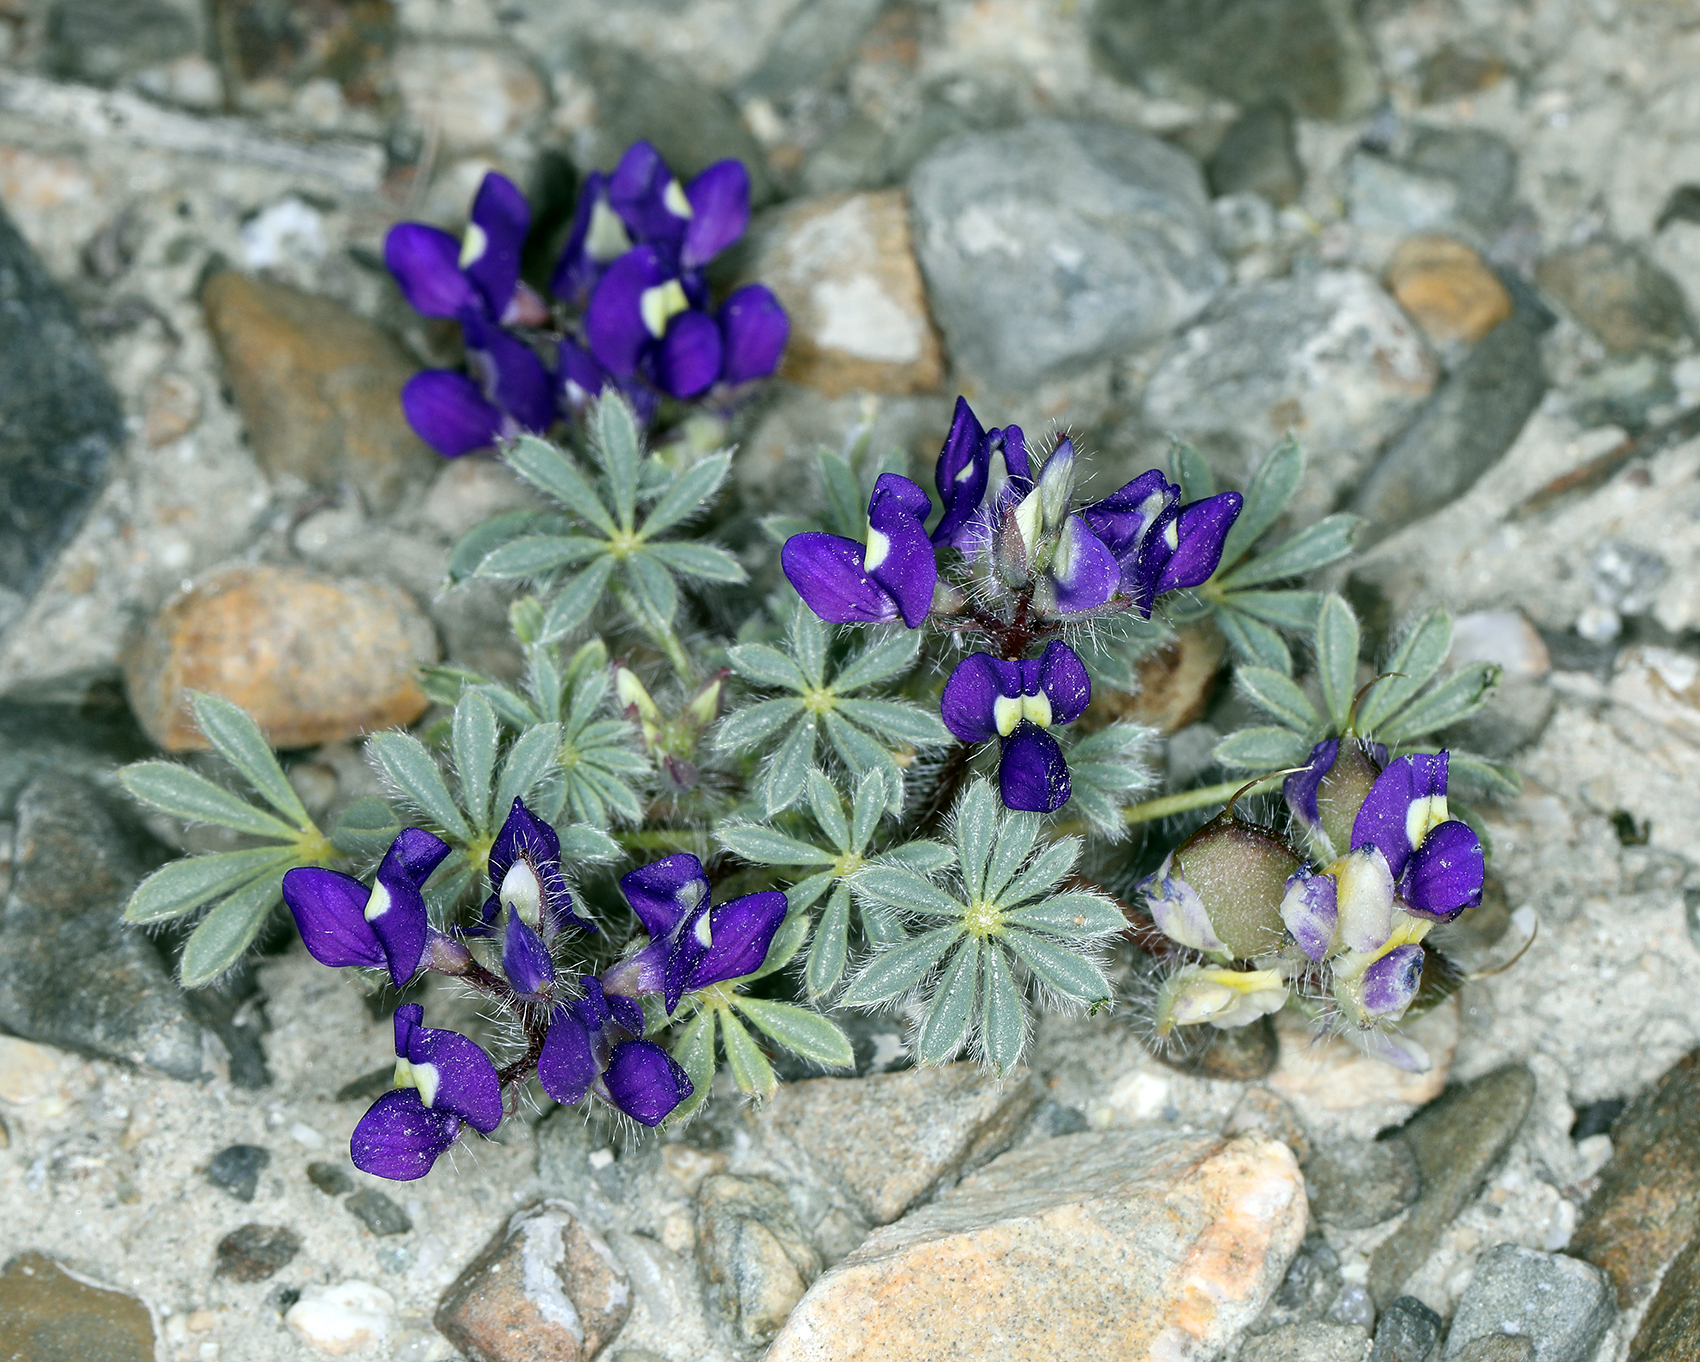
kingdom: Plantae
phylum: Tracheophyta
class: Magnoliopsida
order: Fabales
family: Fabaceae
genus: Lupinus
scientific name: Lupinus brevicaulis
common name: Sand lupine
